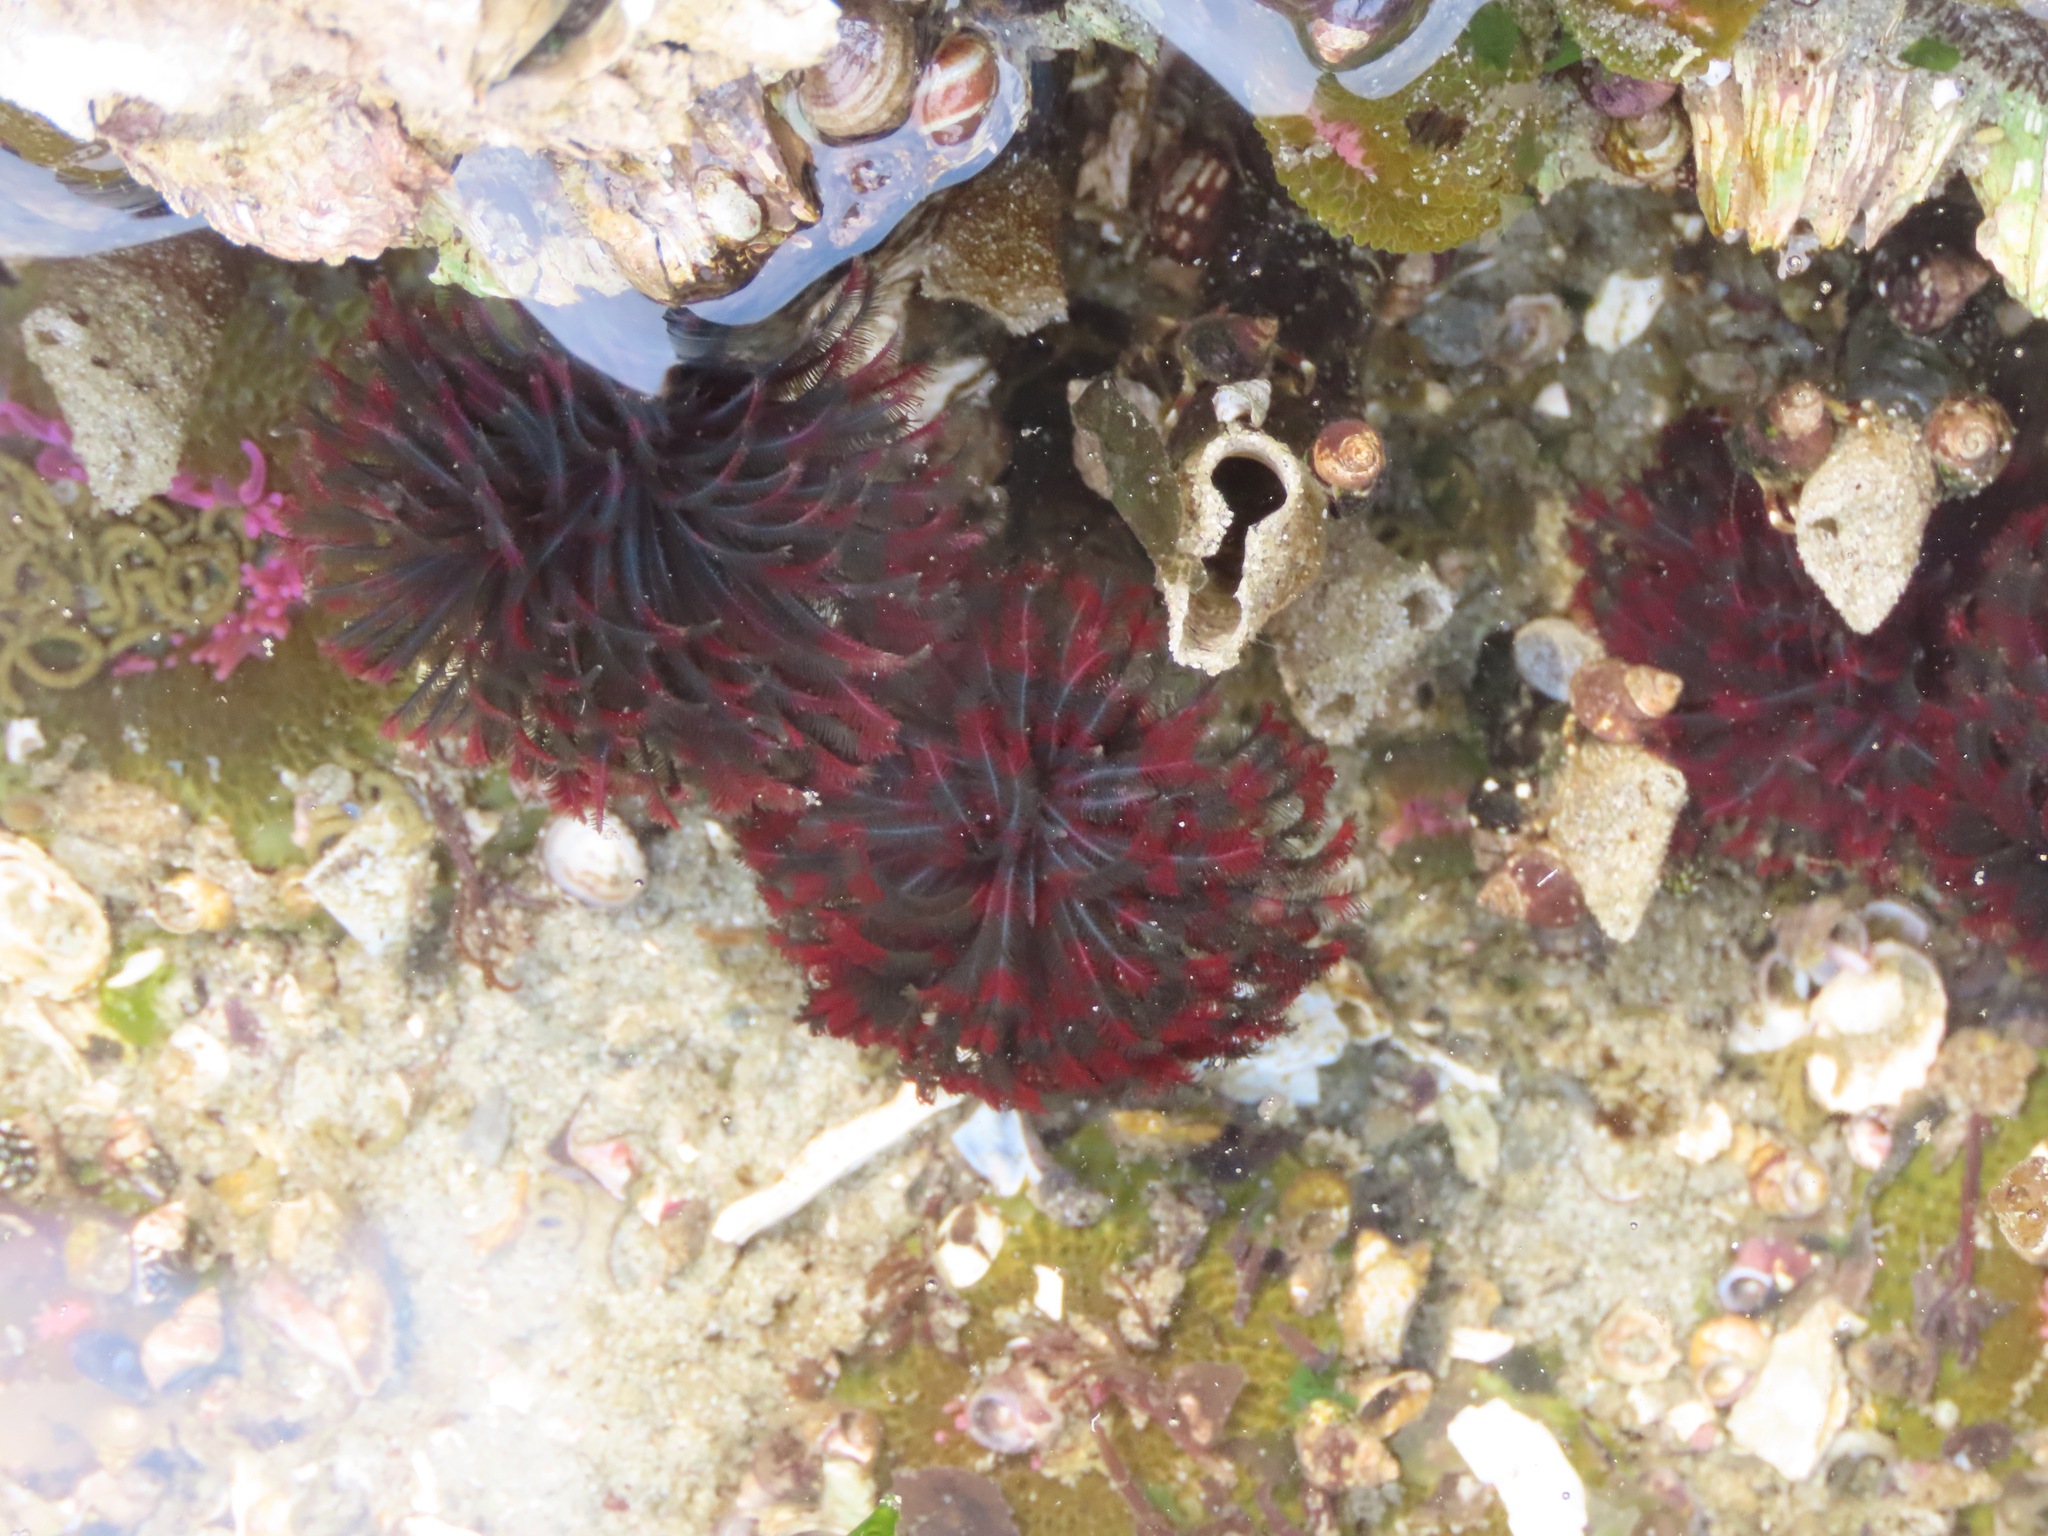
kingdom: Animalia
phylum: Annelida
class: Polychaeta
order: Sabellida
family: Sabellidae
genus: Eudistylia
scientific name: Eudistylia vancouveri
